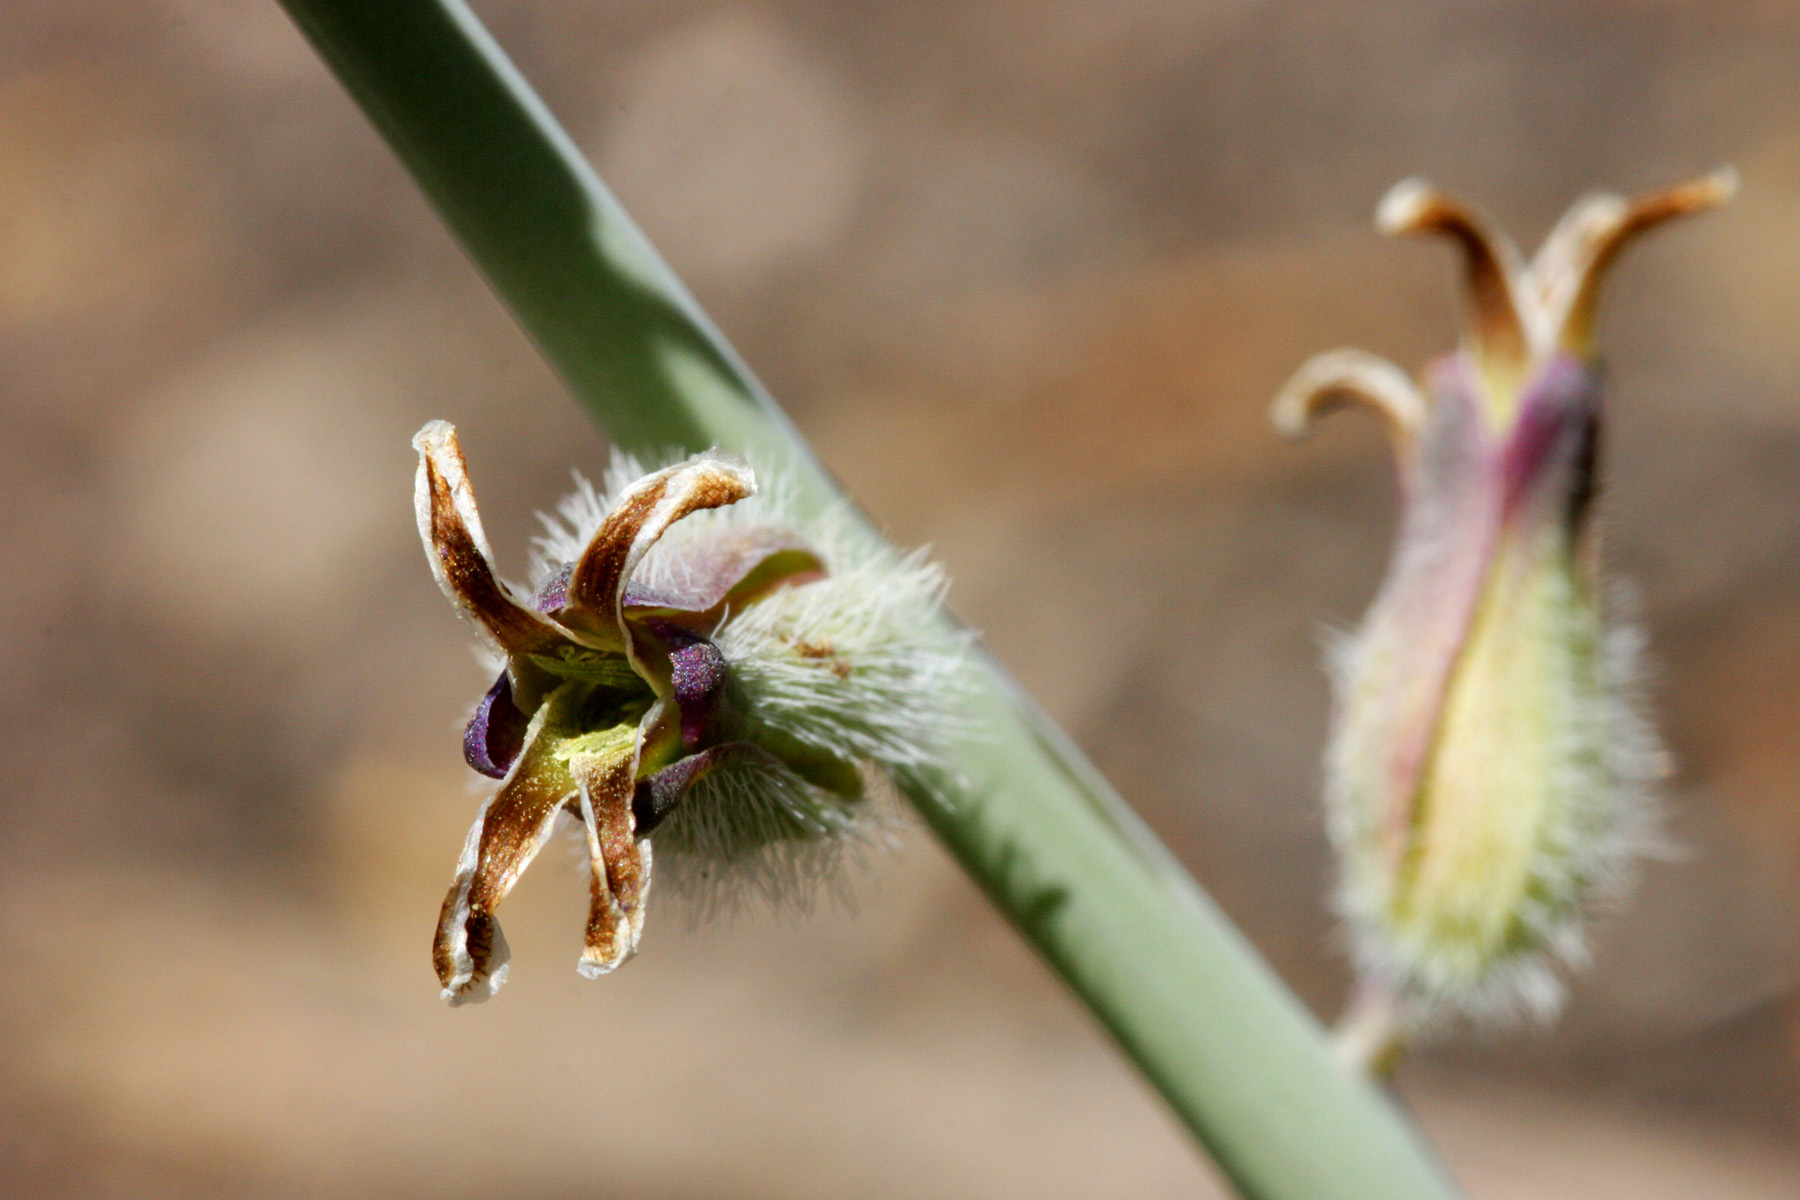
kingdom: Plantae
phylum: Tracheophyta
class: Magnoliopsida
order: Brassicales
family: Brassicaceae
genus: Streptanthus
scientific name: Streptanthus crassicaulis
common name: Thick-stem wild cabbage
